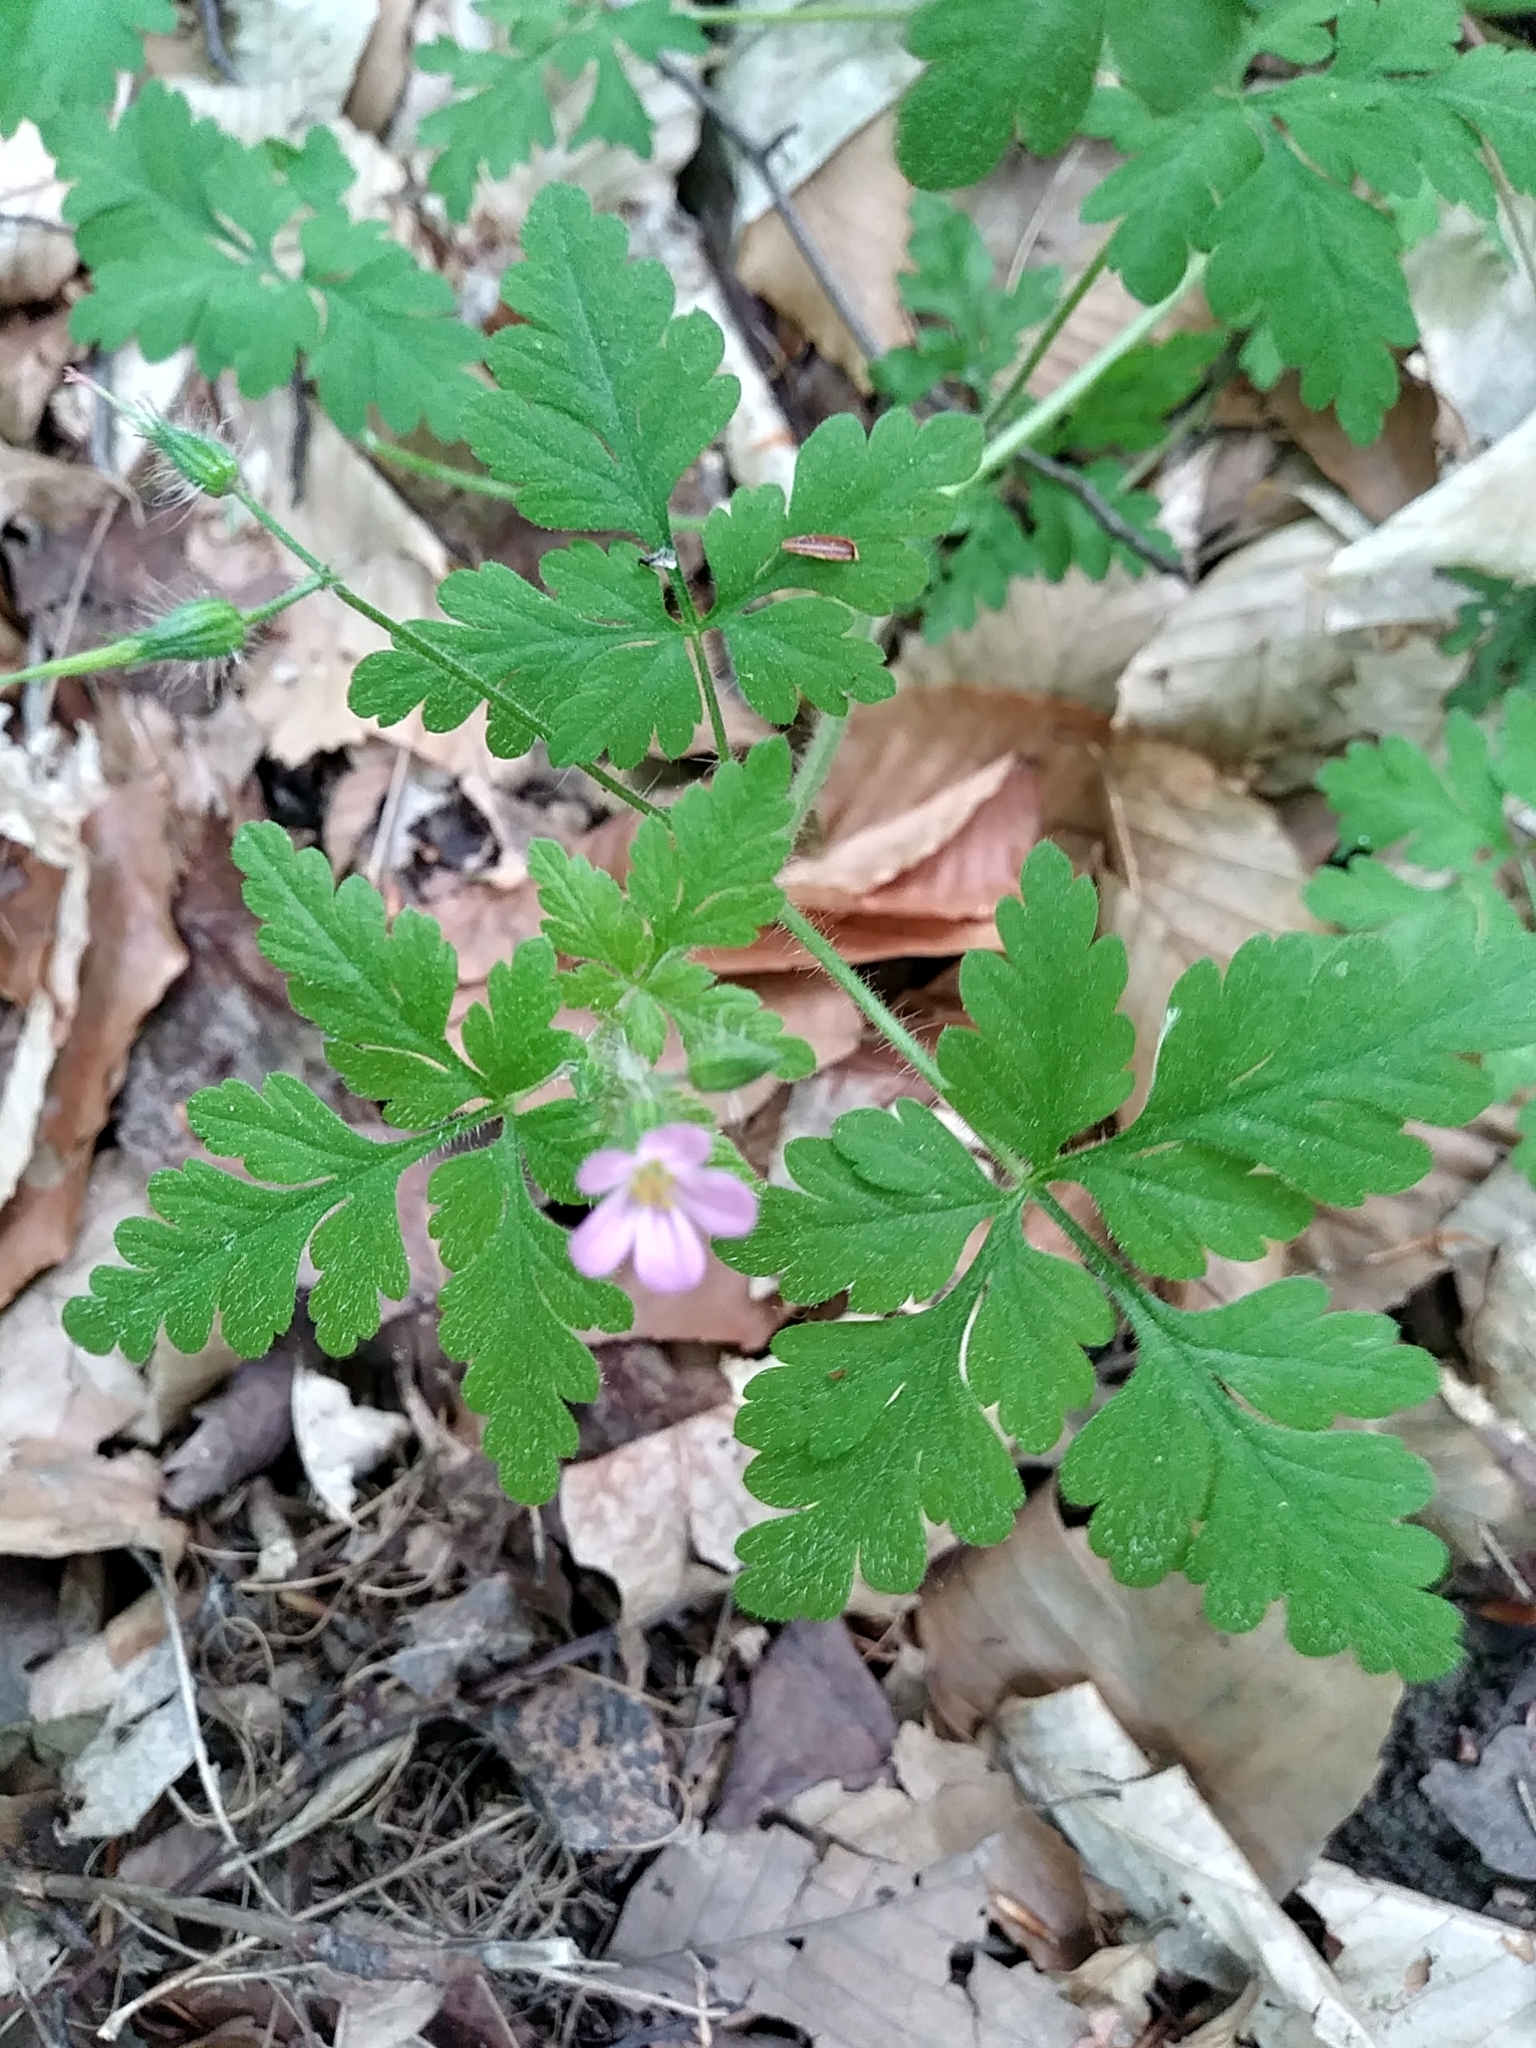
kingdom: Plantae
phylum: Tracheophyta
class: Magnoliopsida
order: Geraniales
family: Geraniaceae
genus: Geranium
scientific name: Geranium robertianum
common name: Herb-robert
